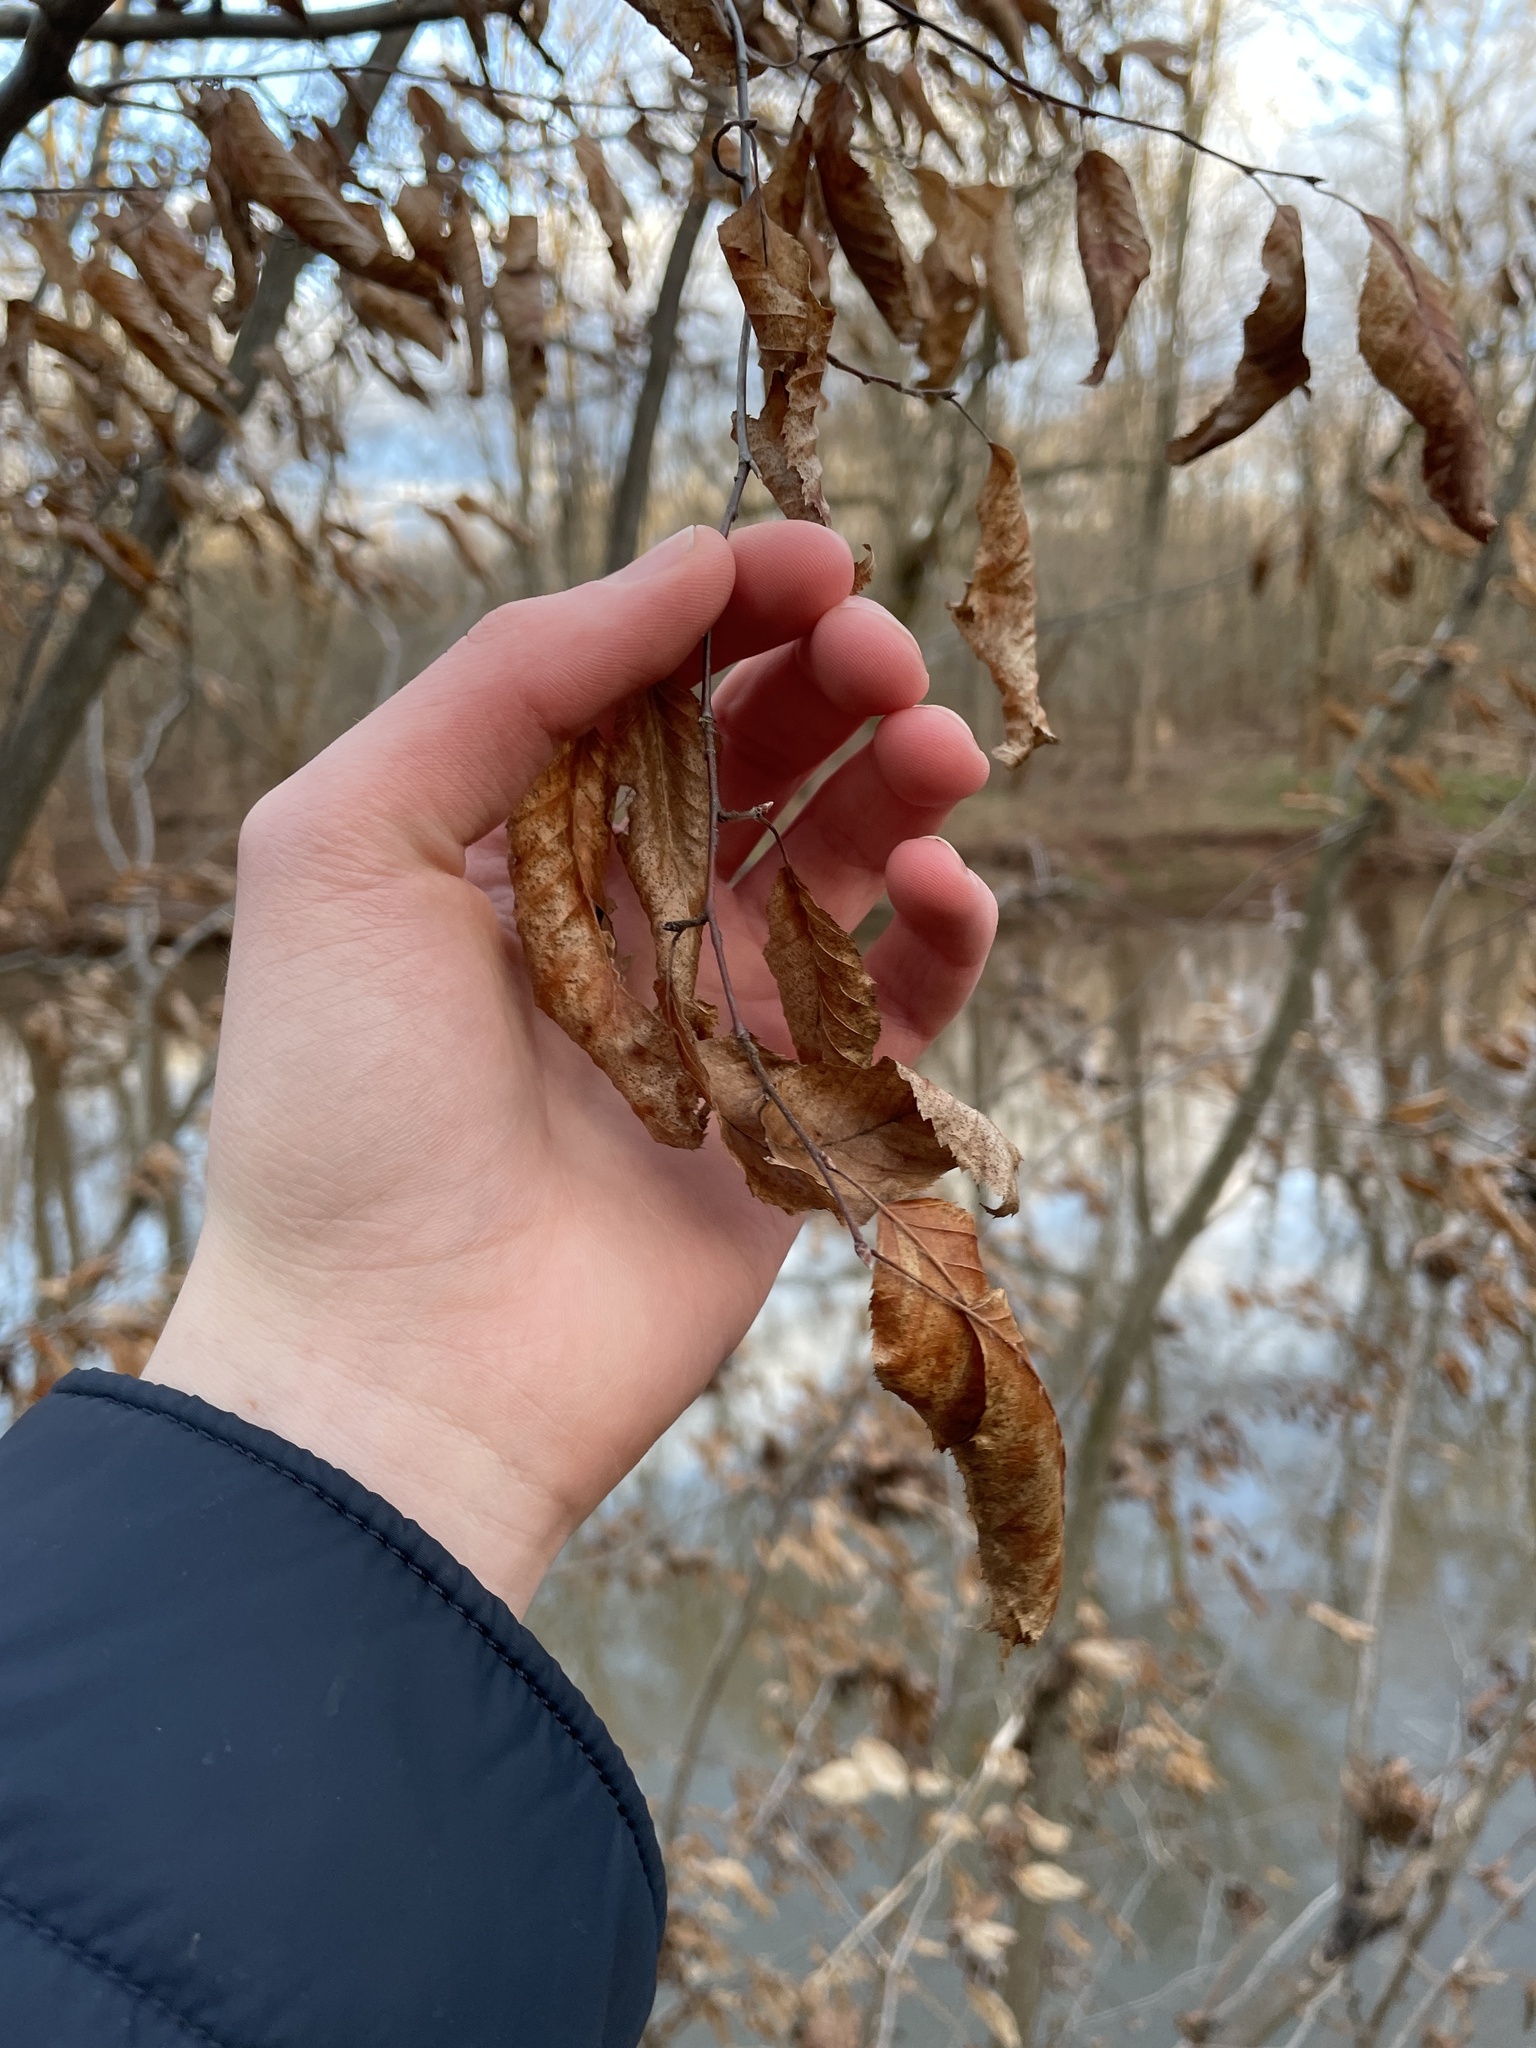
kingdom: Plantae
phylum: Tracheophyta
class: Magnoliopsida
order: Fagales
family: Betulaceae
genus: Carpinus
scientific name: Carpinus caroliniana
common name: American hornbeam
